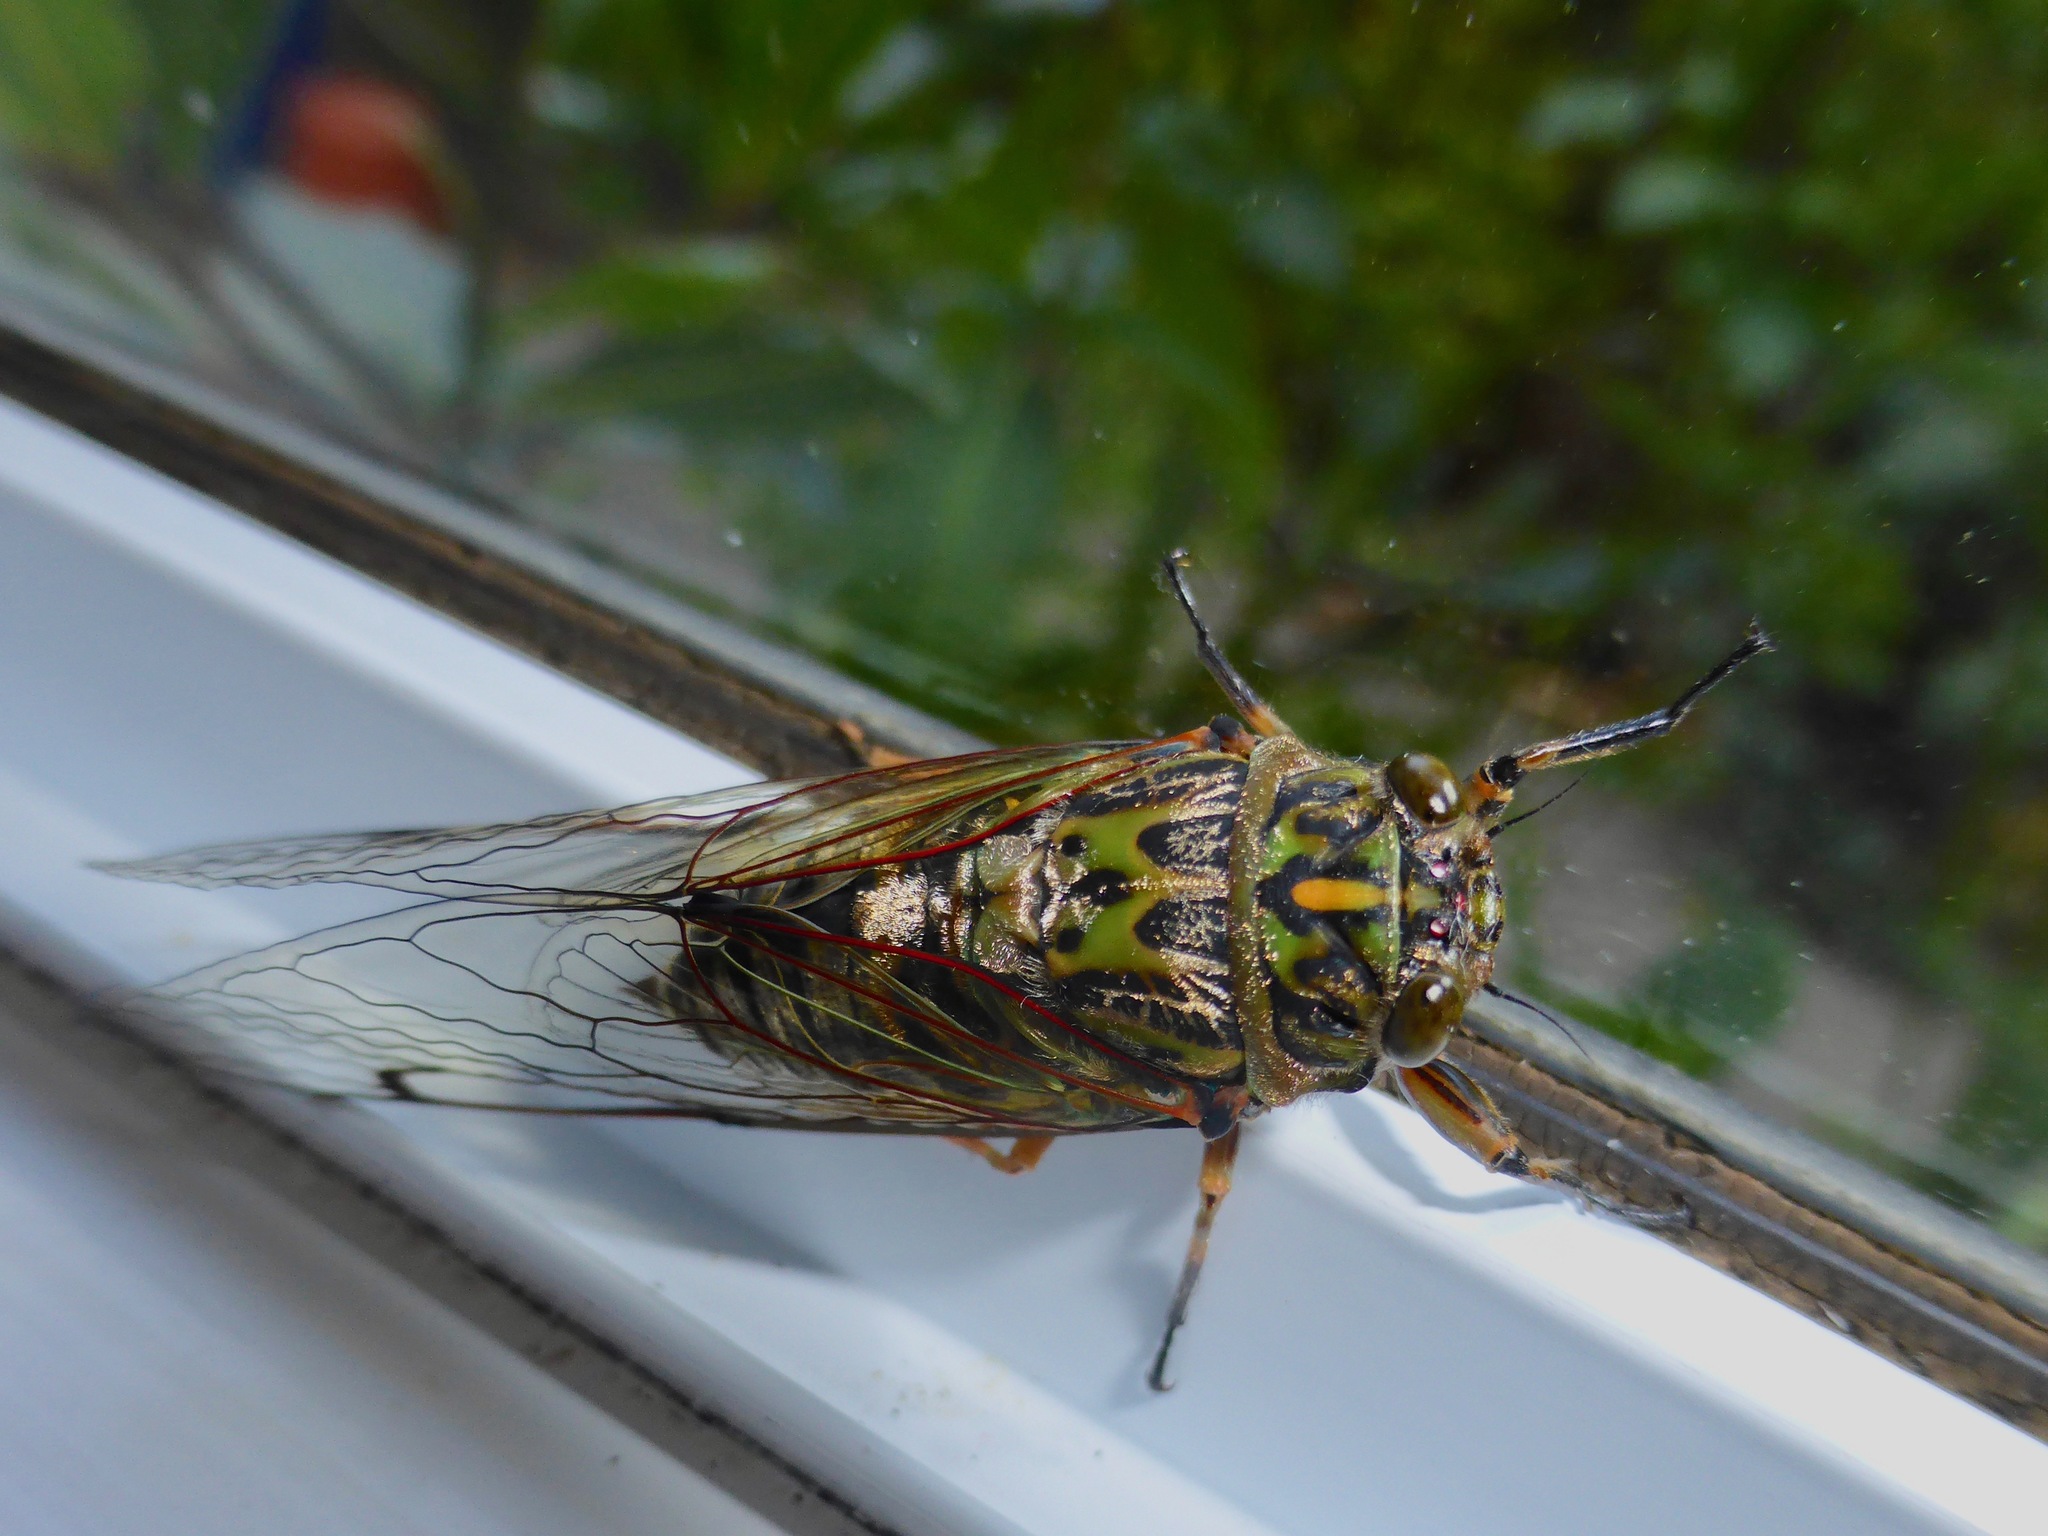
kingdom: Animalia
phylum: Arthropoda
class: Insecta
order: Hemiptera
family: Cicadidae
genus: Amphipsalta
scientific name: Amphipsalta zelandica
